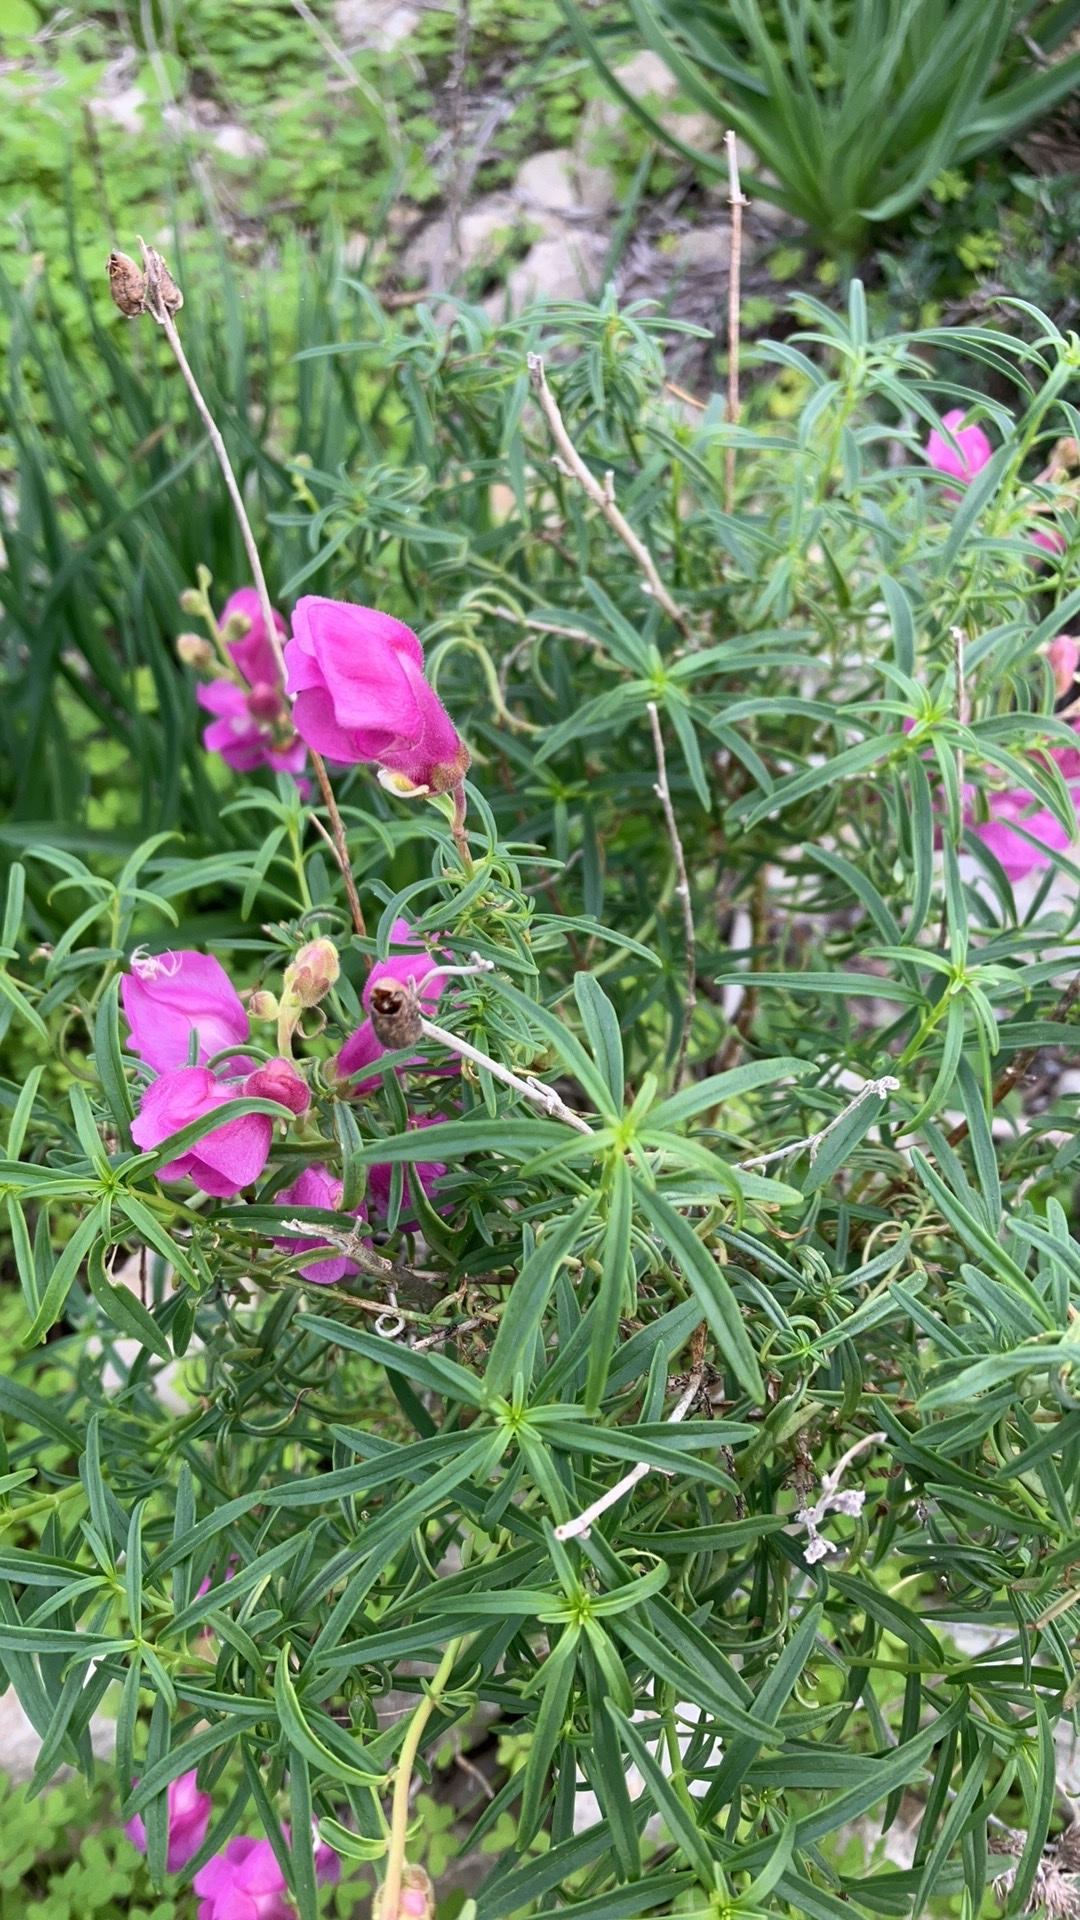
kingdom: Plantae
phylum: Tracheophyta
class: Magnoliopsida
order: Lamiales
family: Plantaginaceae
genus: Antirrhinum
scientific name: Antirrhinum tortuosum
